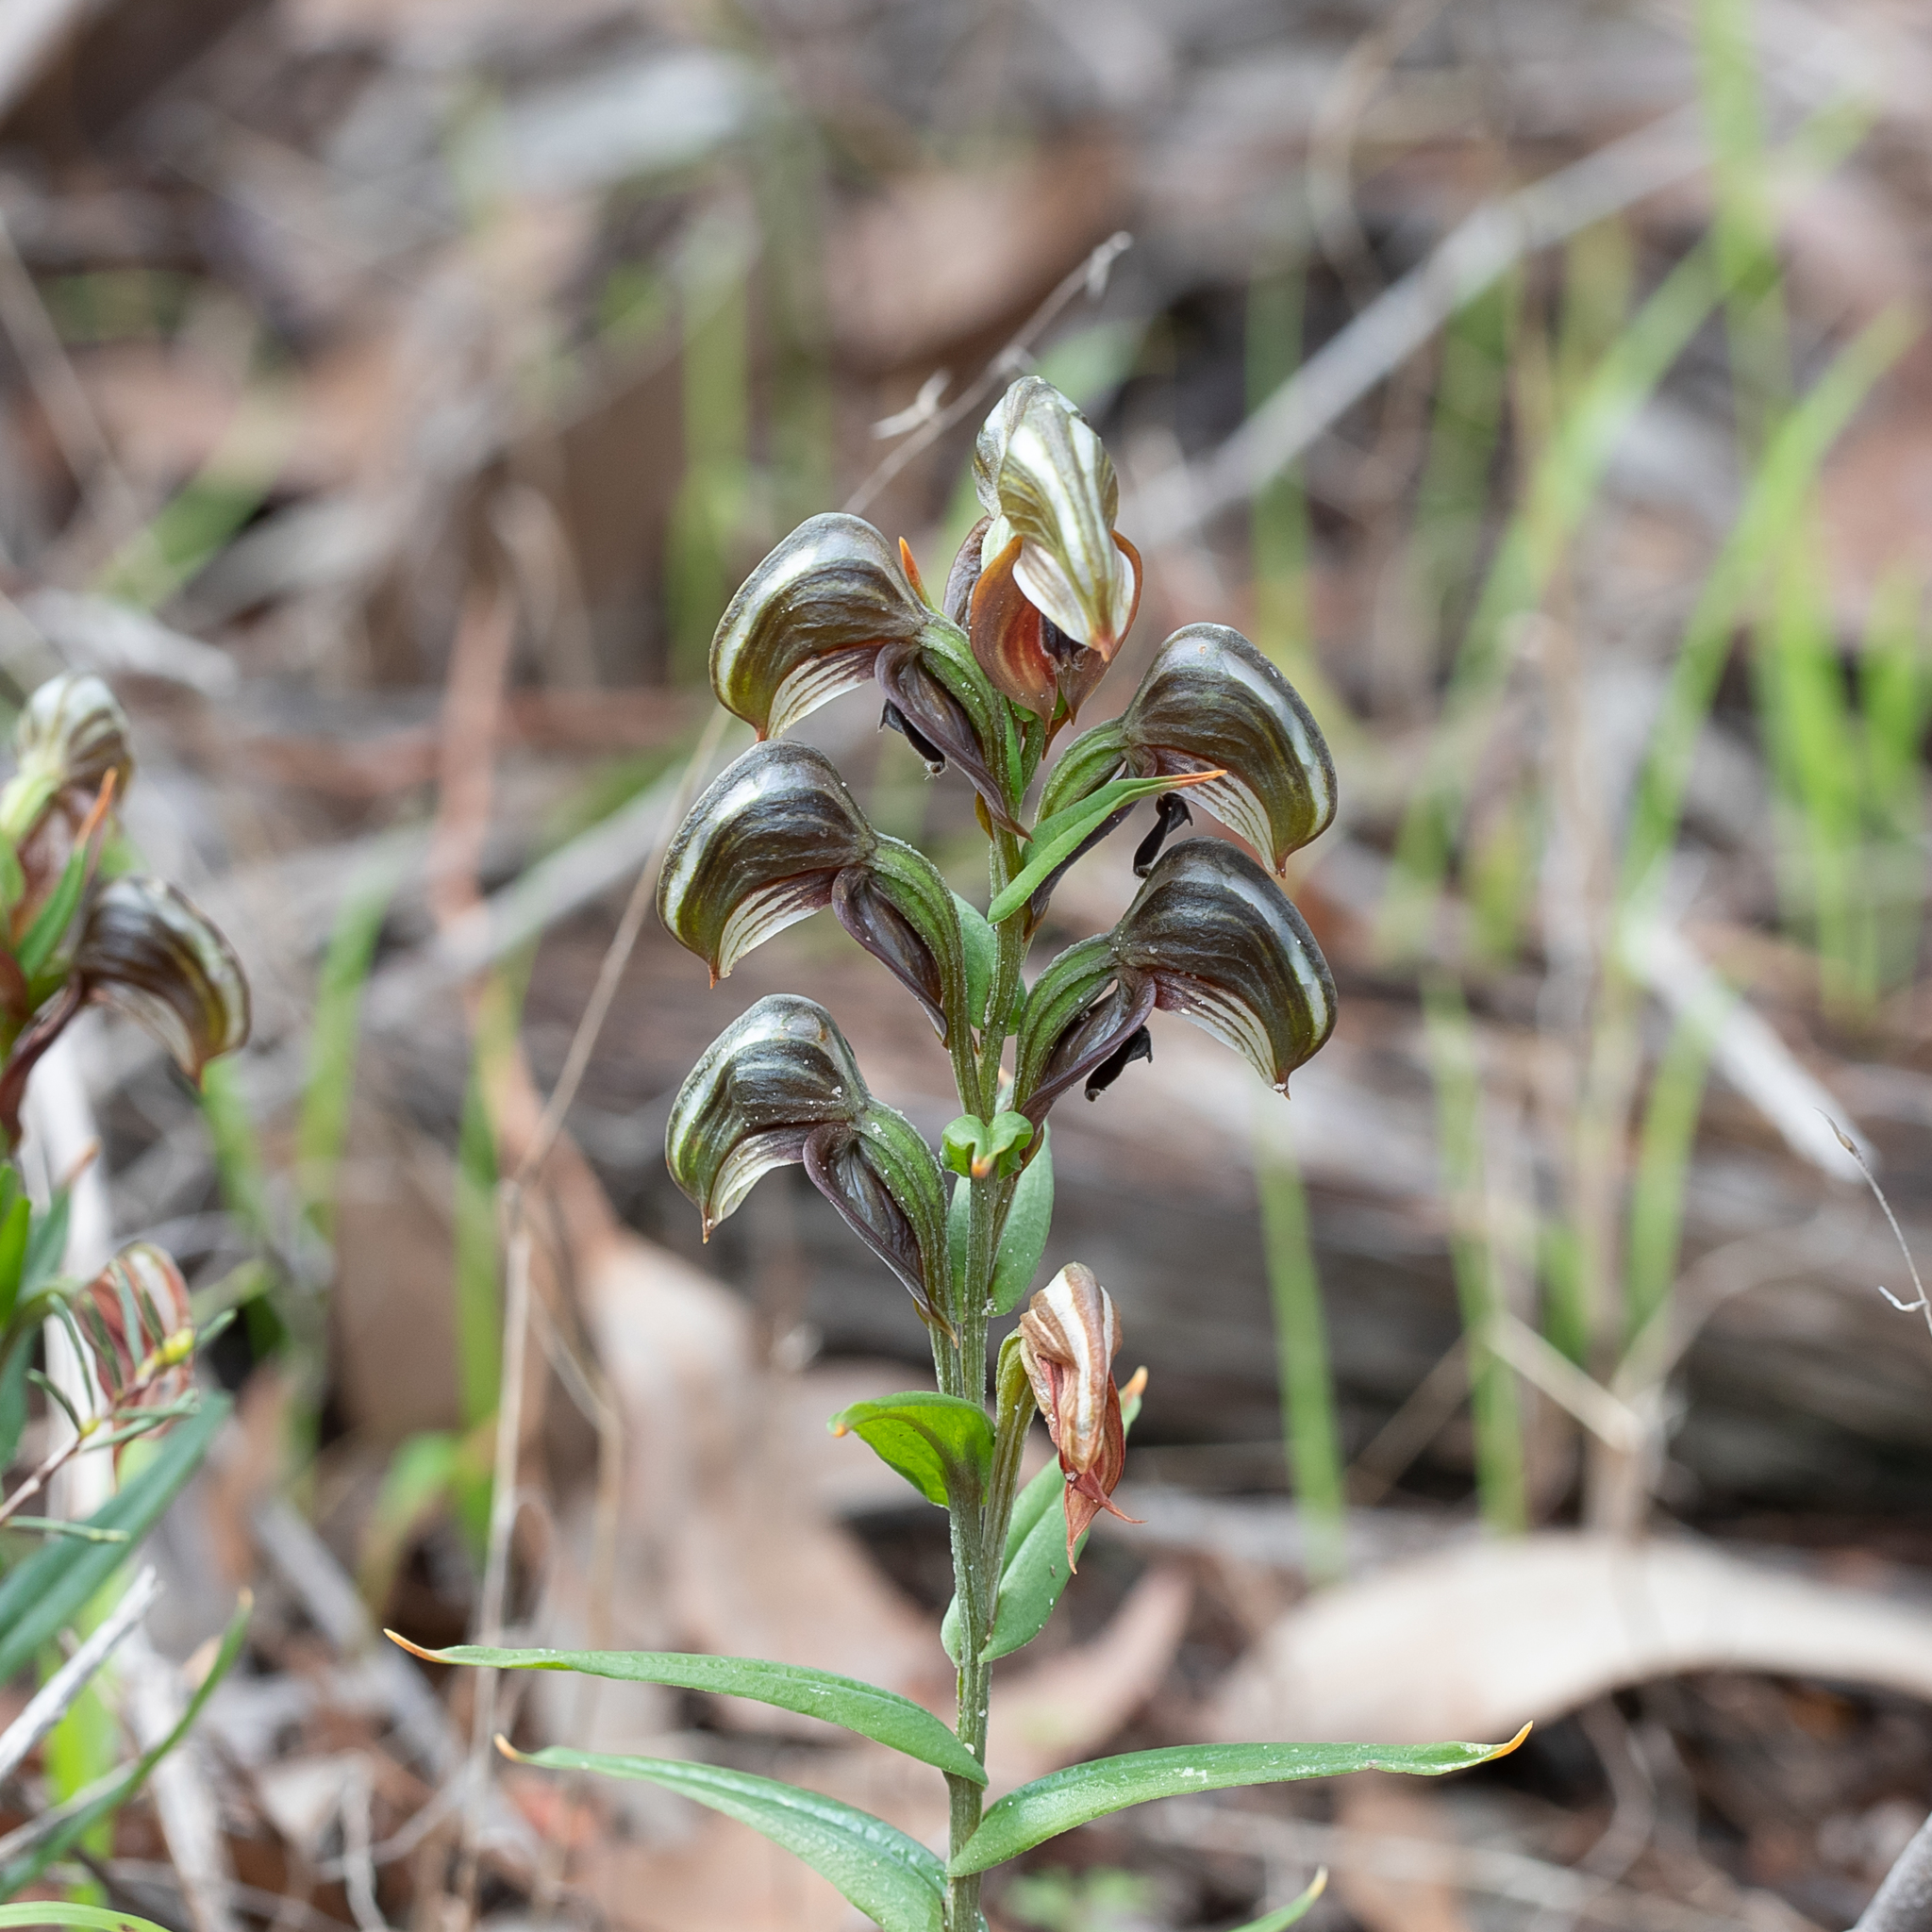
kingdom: Plantae
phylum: Tracheophyta
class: Liliopsida
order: Asparagales
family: Orchidaceae
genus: Pterostylis
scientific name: Pterostylis sanguinea
